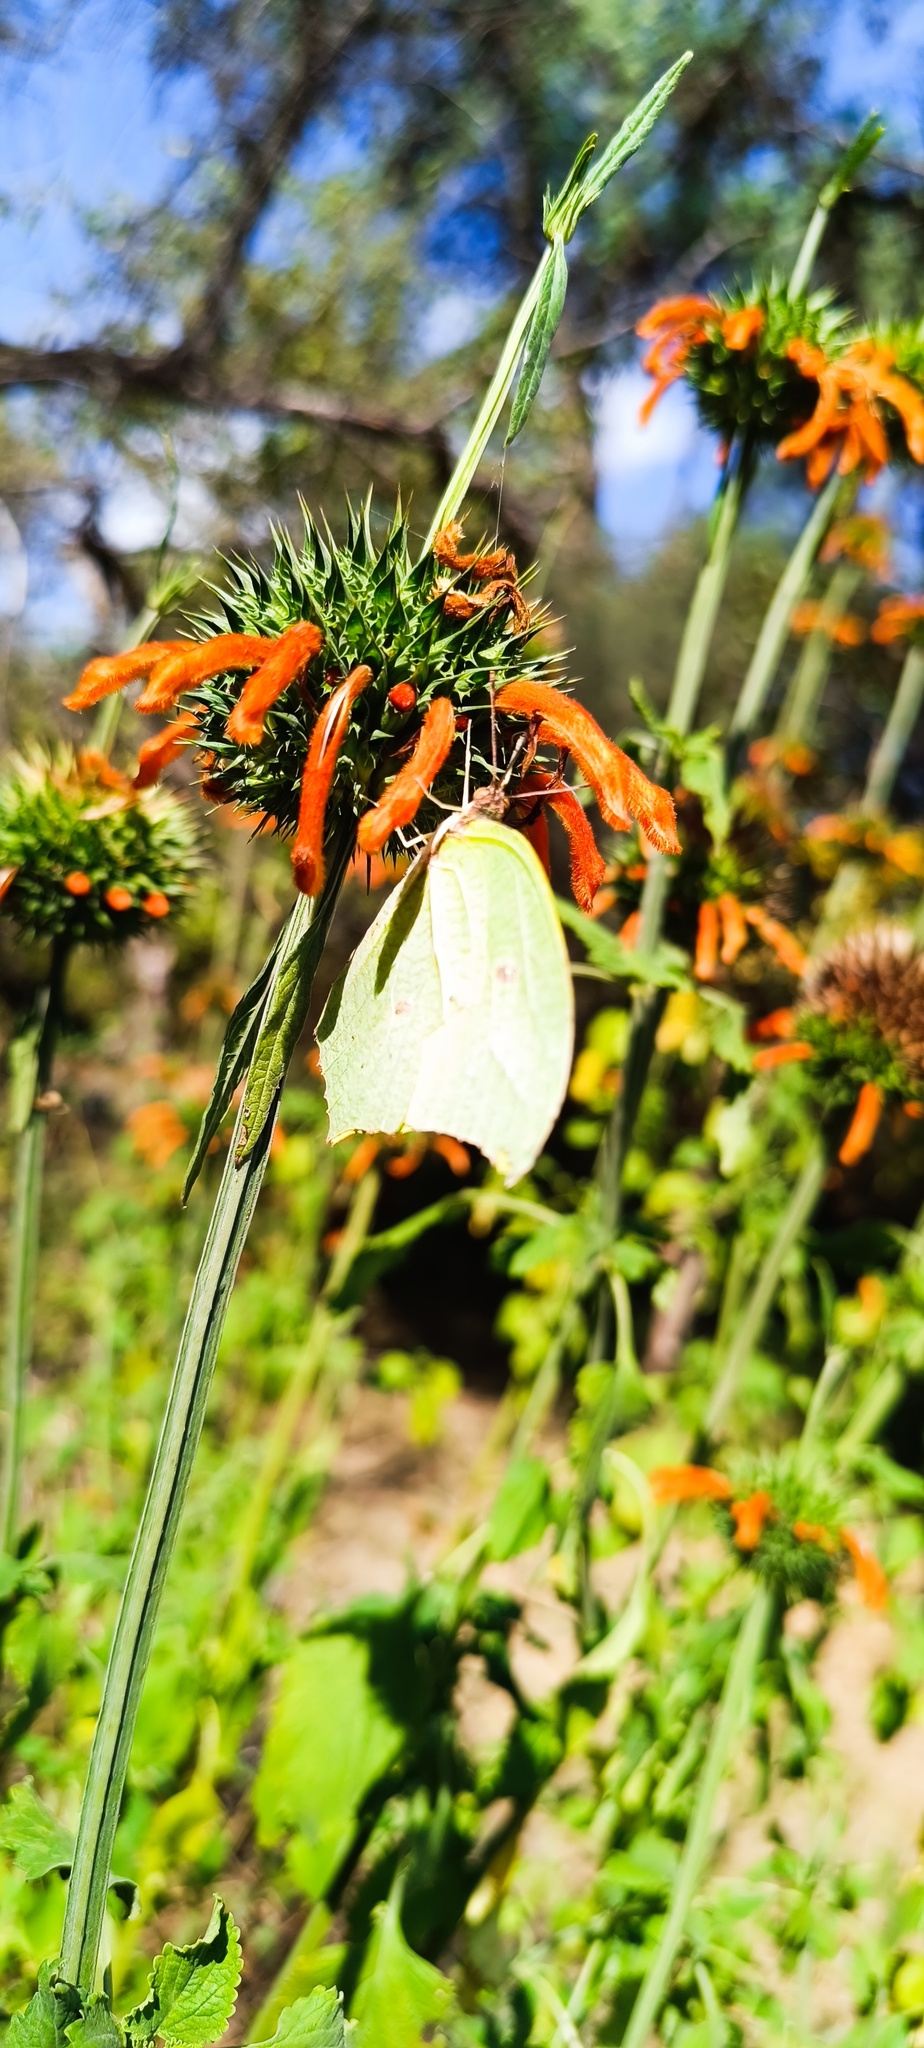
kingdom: Animalia
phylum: Arthropoda
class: Insecta
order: Lepidoptera
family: Pieridae
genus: Anteos
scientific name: Anteos maerula
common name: Angled sulphur
